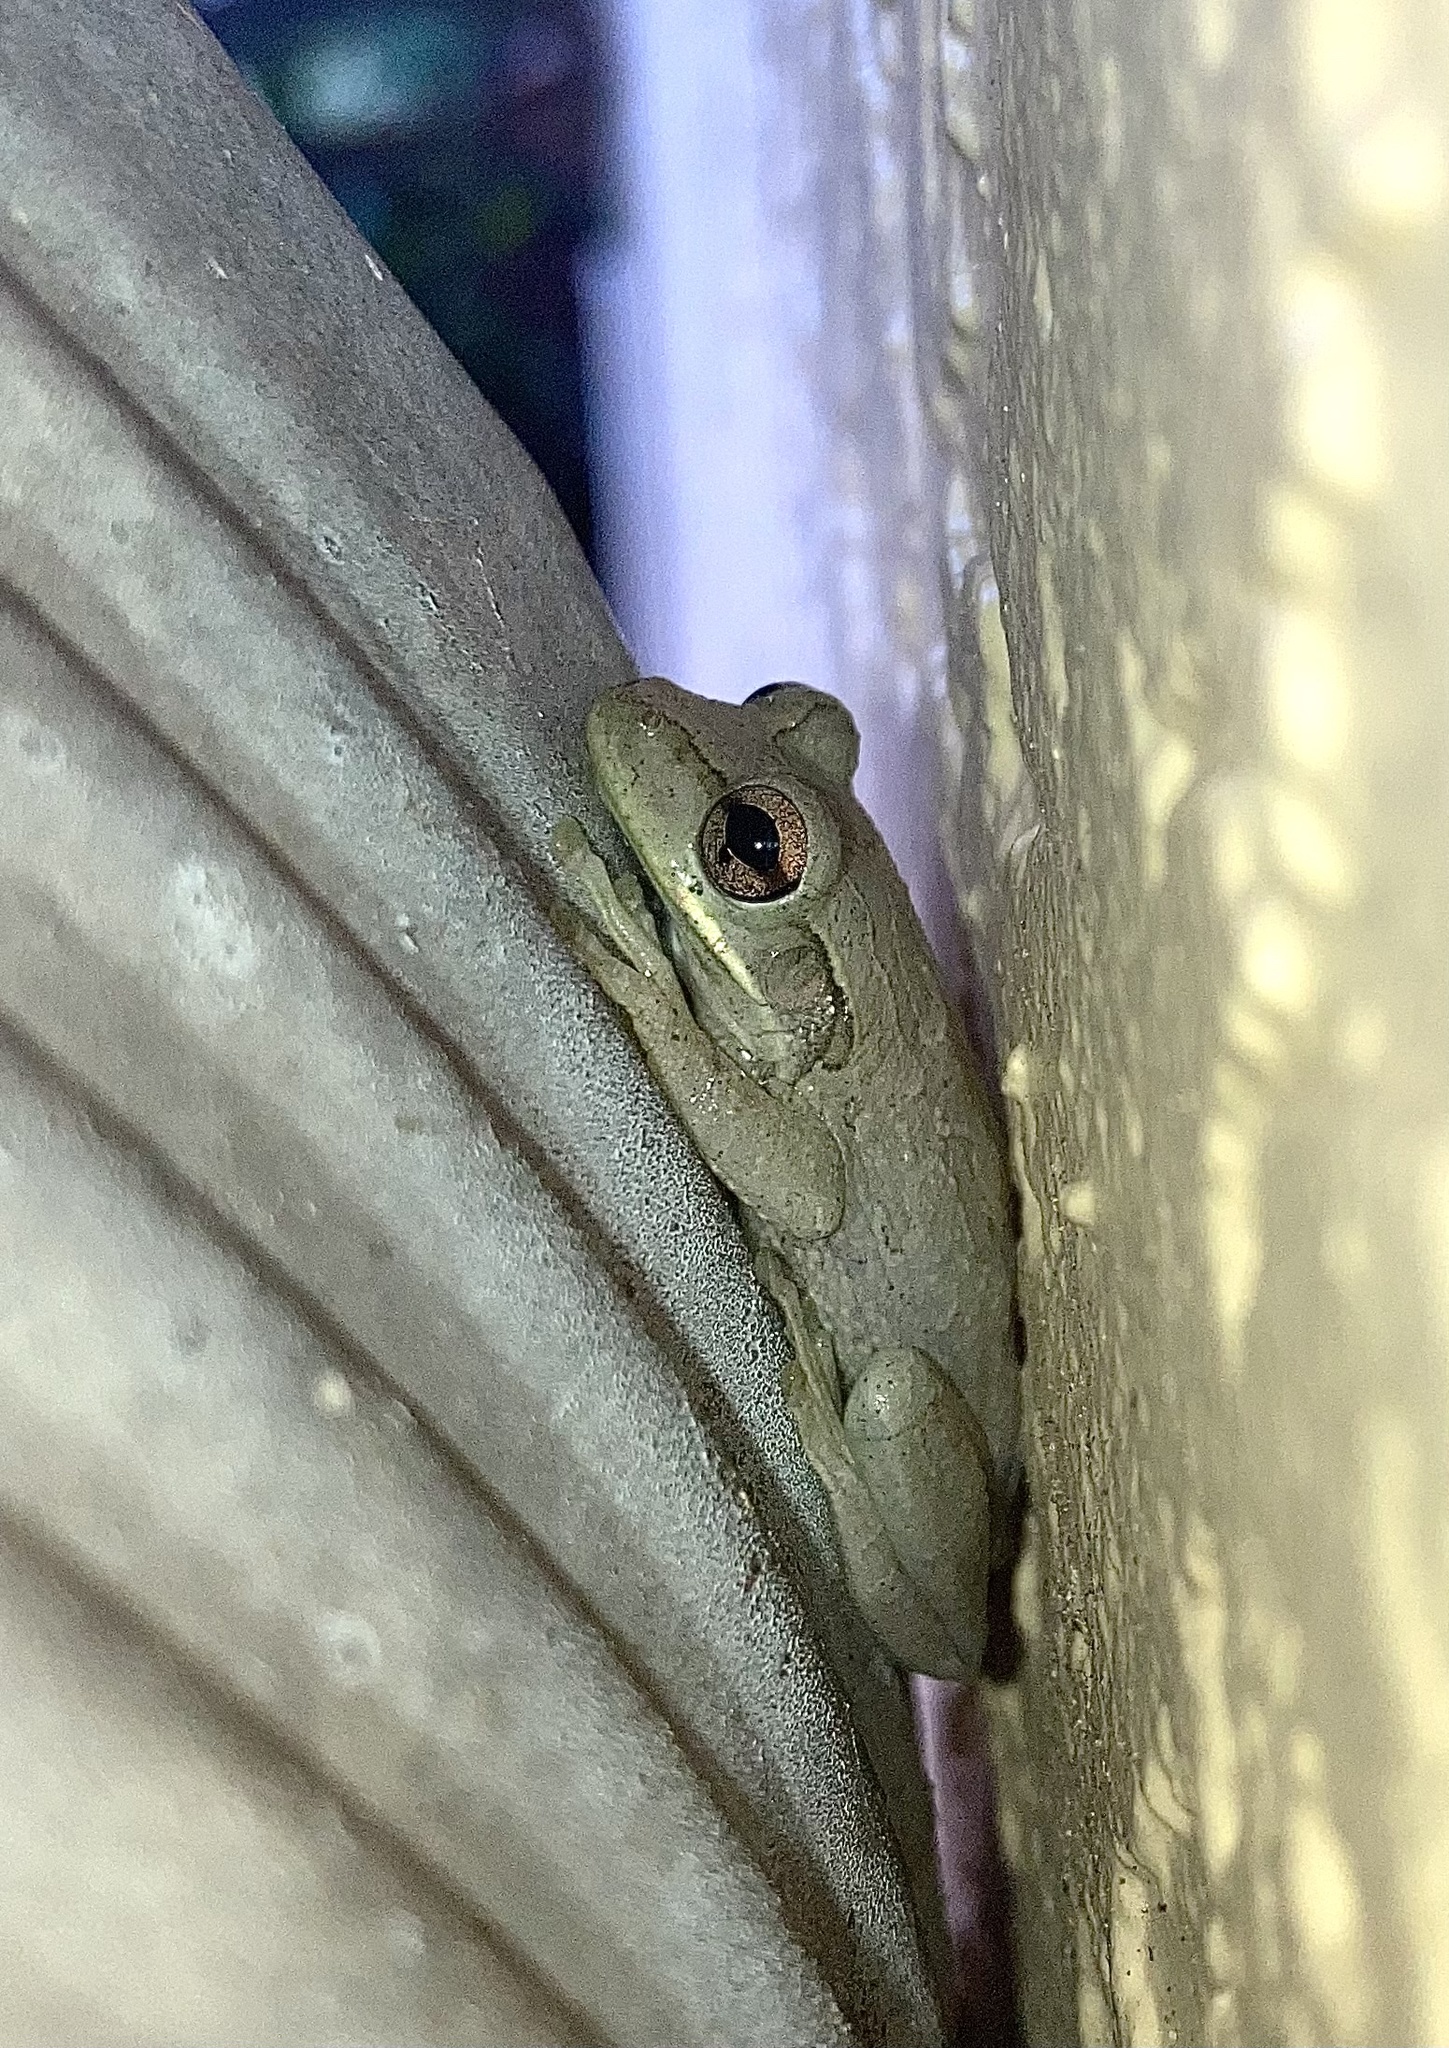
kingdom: Animalia
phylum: Chordata
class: Amphibia
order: Anura
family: Hylidae
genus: Osteopilus
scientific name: Osteopilus septentrionalis
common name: Cuban treefrog
